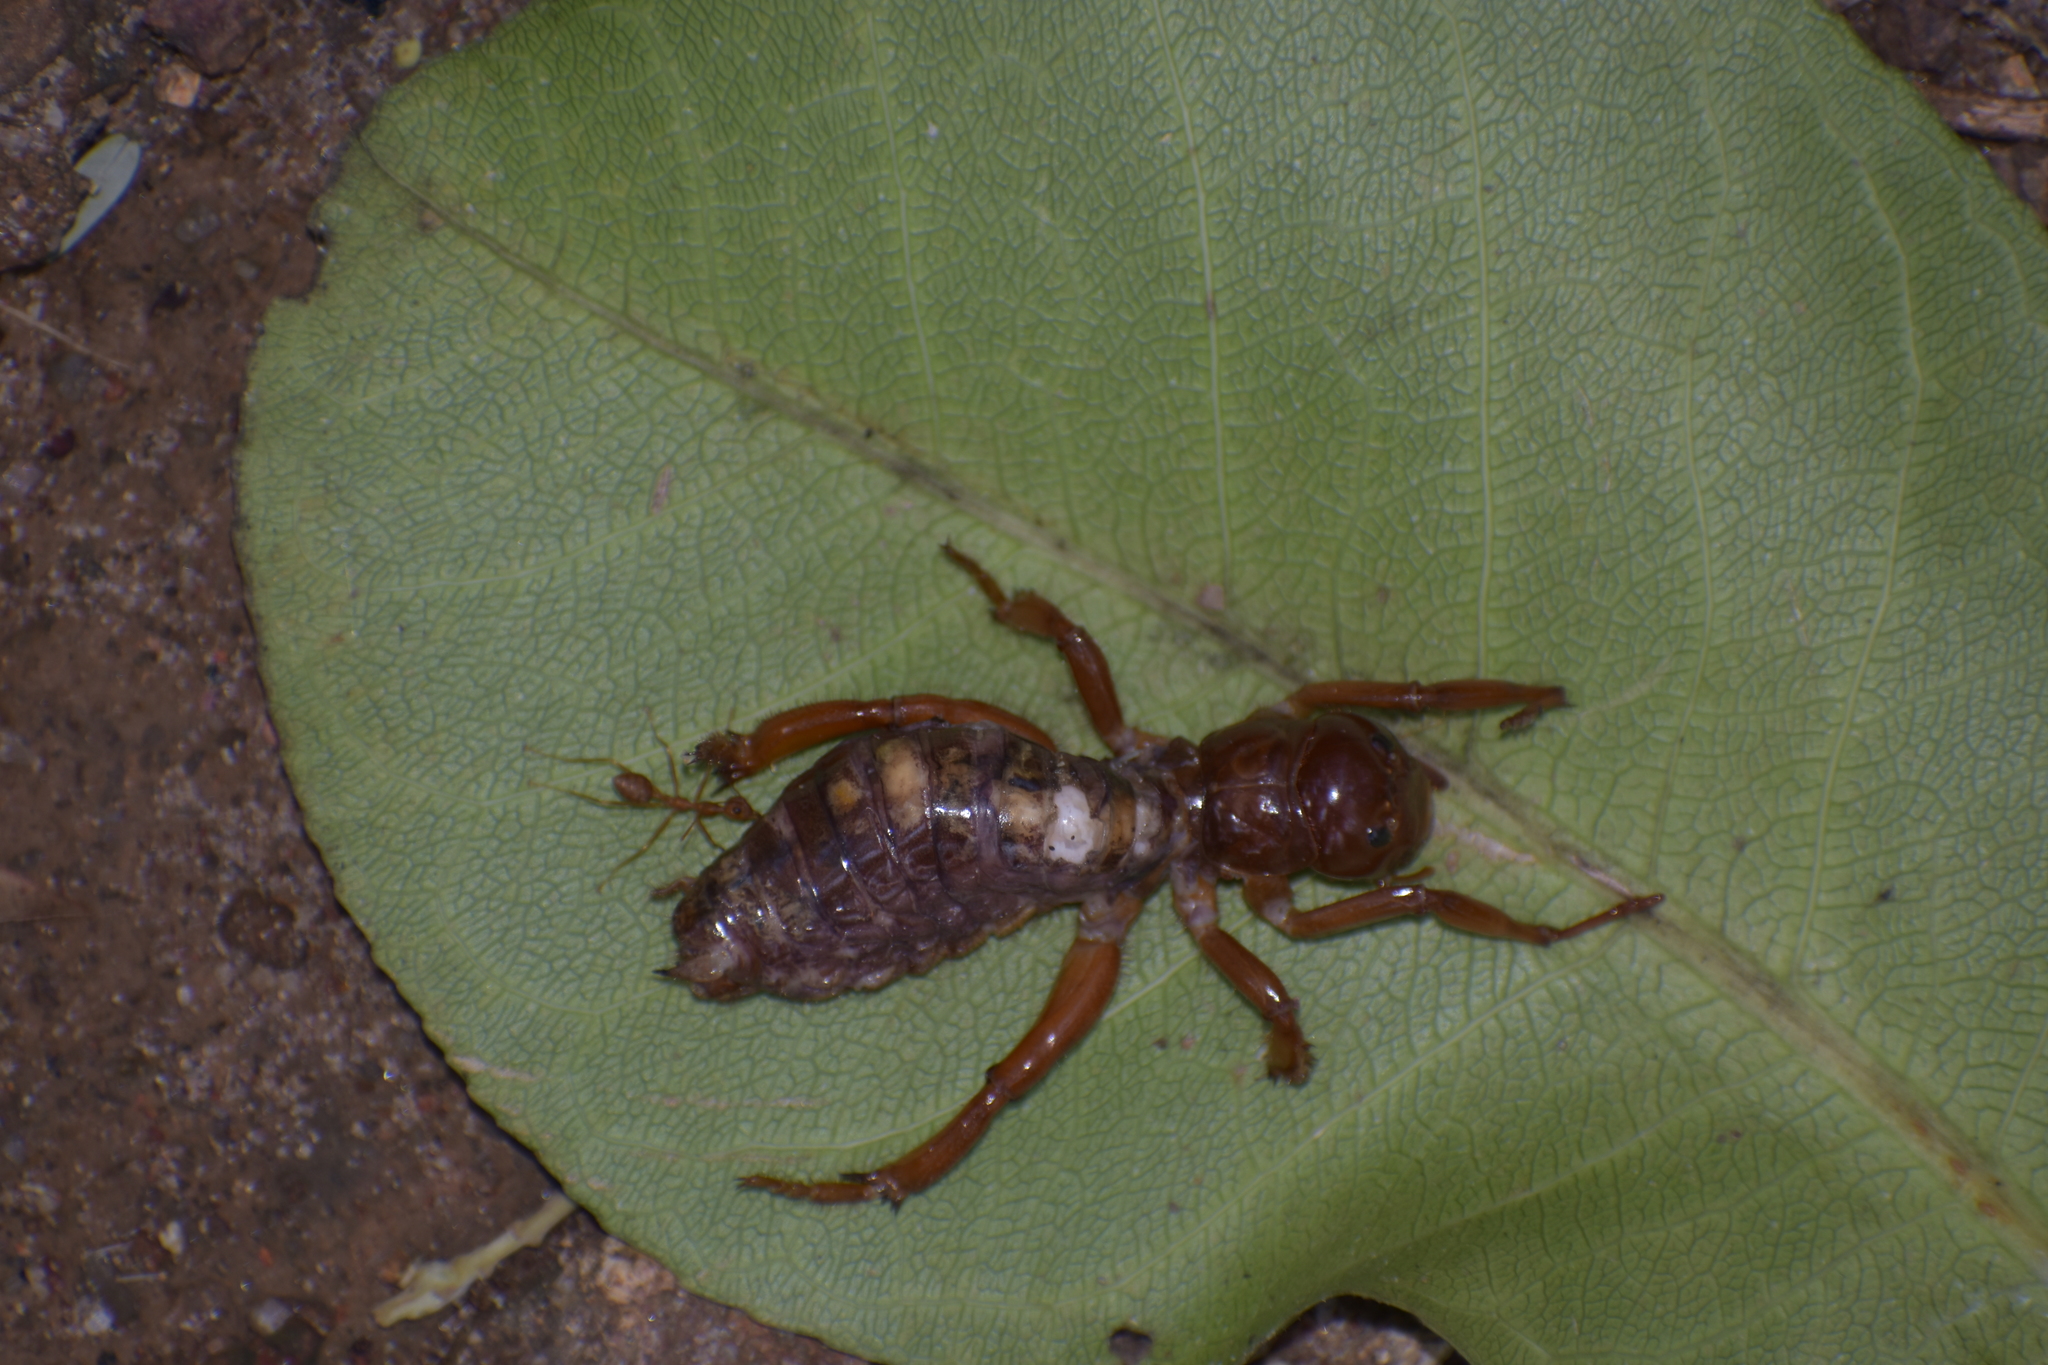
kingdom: Animalia
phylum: Arthropoda
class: Insecta
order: Orthoptera
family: Stenopelmatidae
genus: Oryctopterus
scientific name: Oryctopterus yeshwanthi
